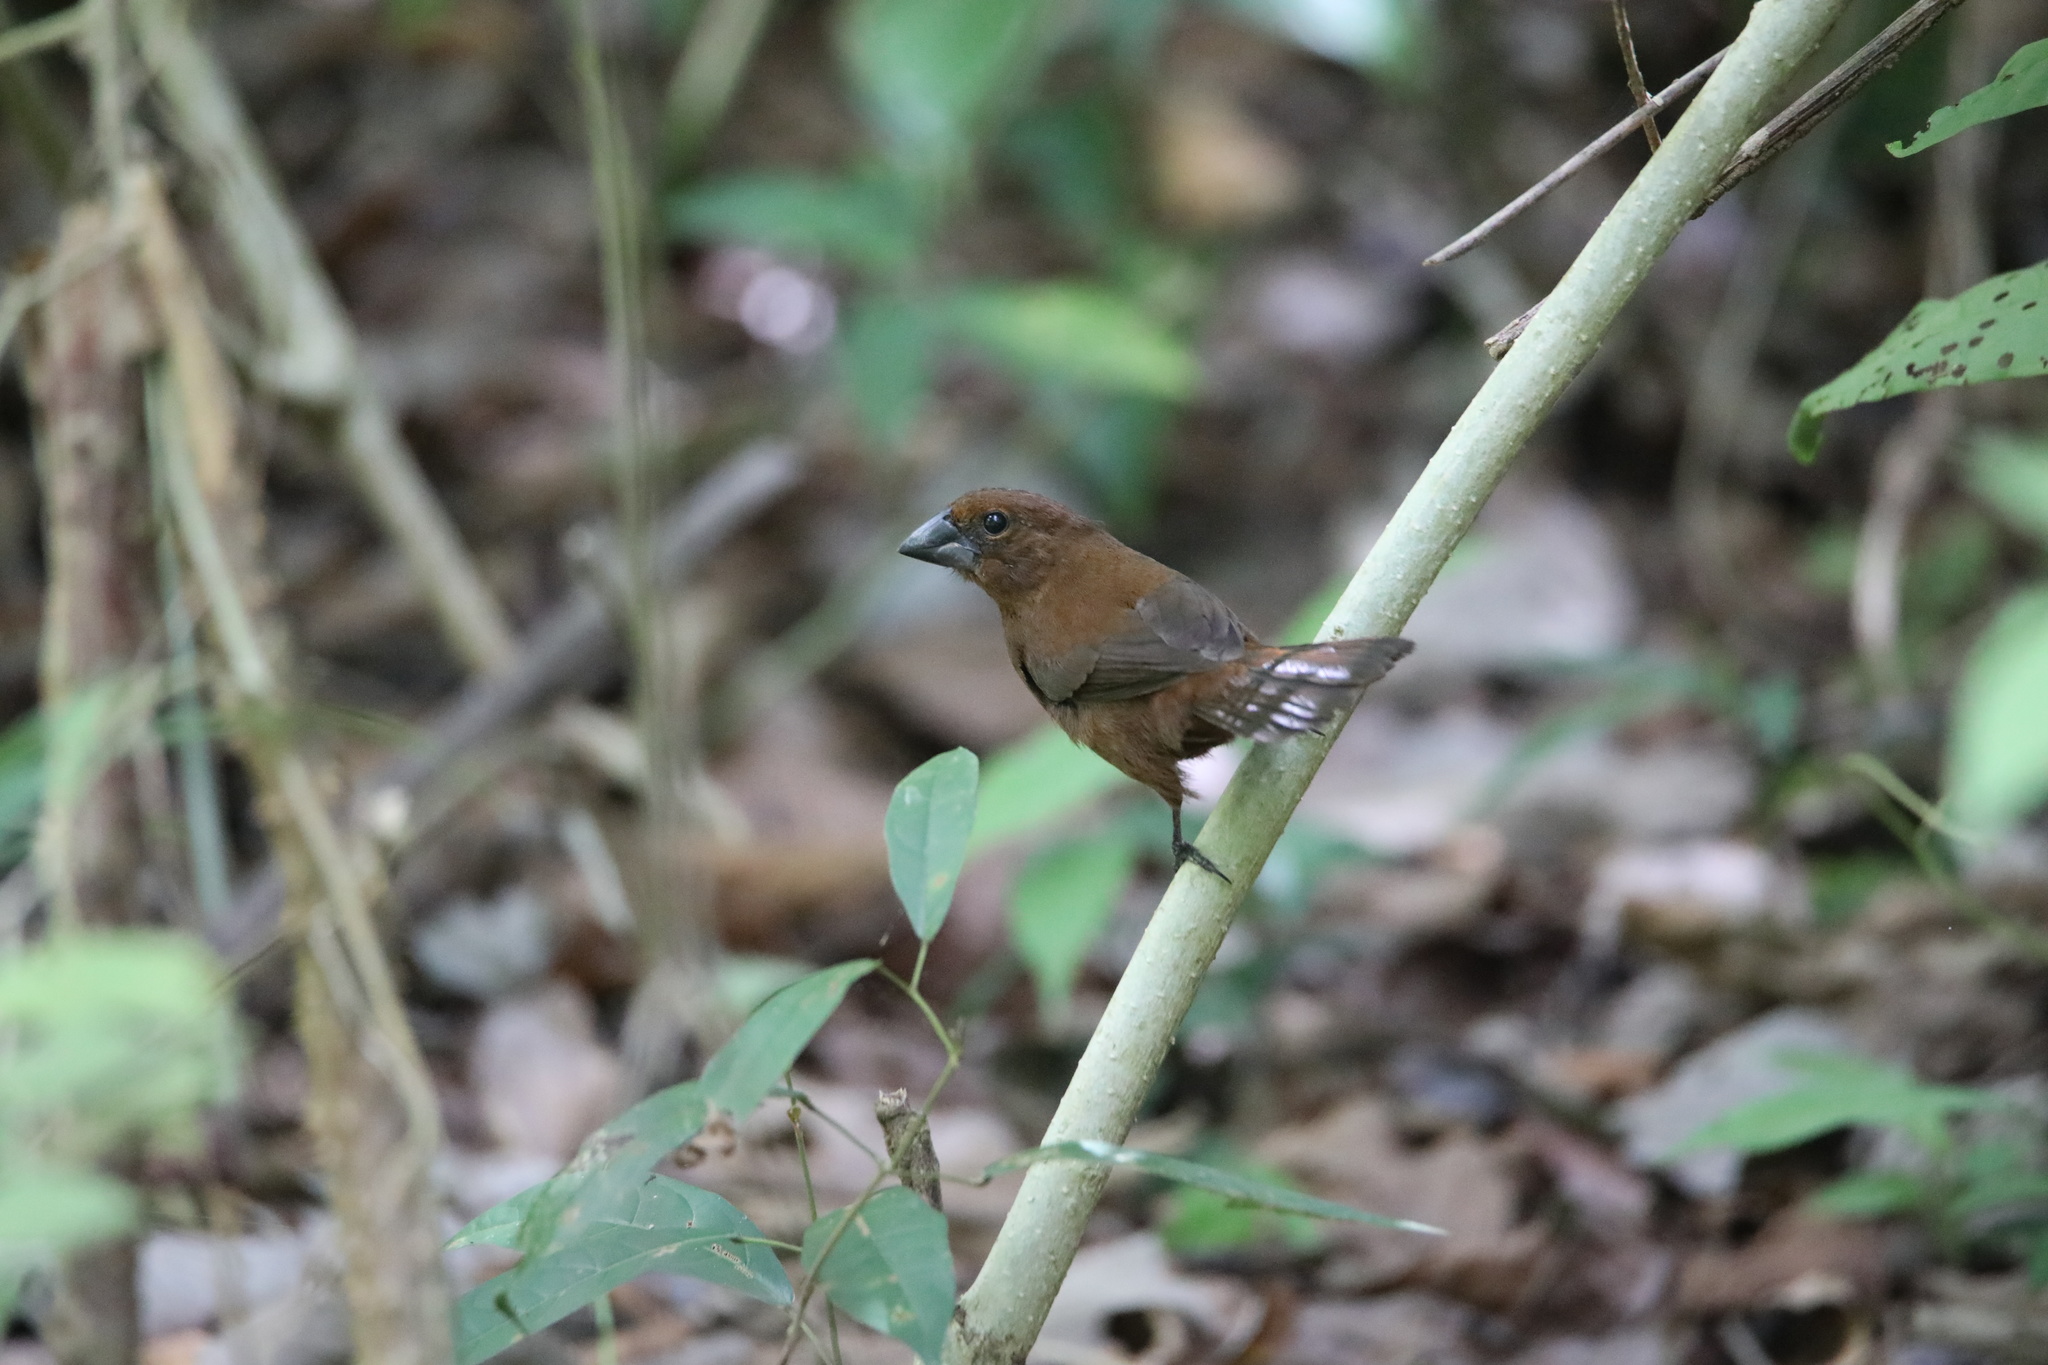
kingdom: Animalia
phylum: Chordata
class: Aves
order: Passeriformes
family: Cardinalidae
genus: Cyanocompsa
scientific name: Cyanocompsa cyanoides
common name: Blue-black grosbeak
